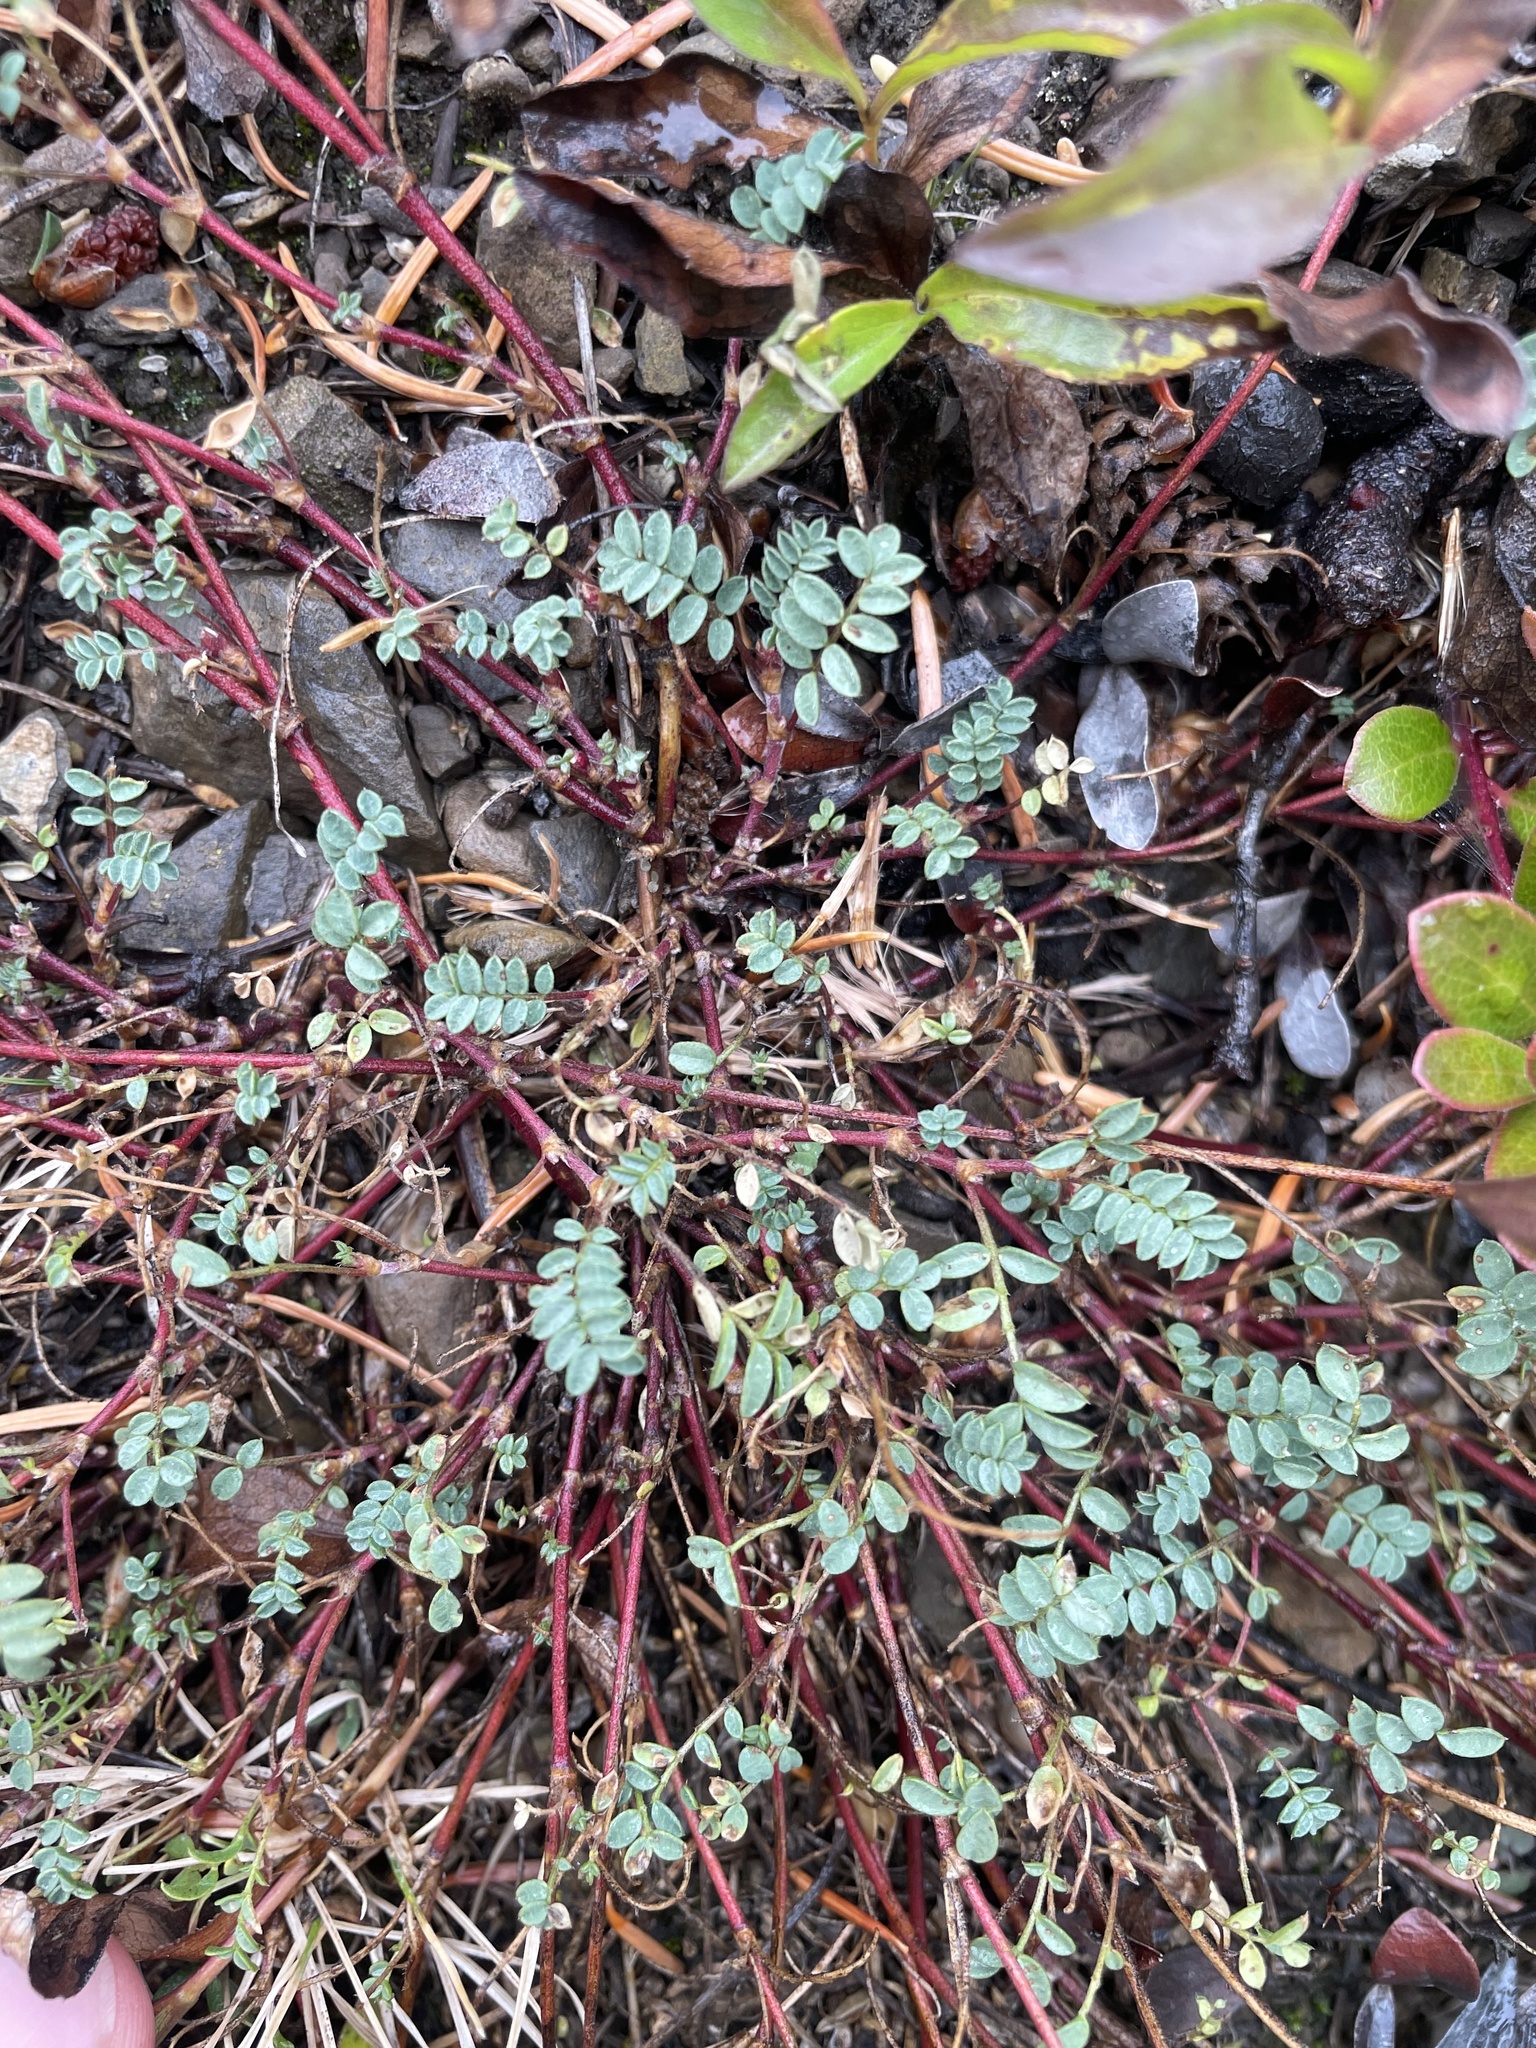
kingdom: Plantae
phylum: Tracheophyta
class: Magnoliopsida
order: Fabales
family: Fabaceae
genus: Astragalus
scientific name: Astragalus vexilliflexus
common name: Bent-flowered milk-vetch
